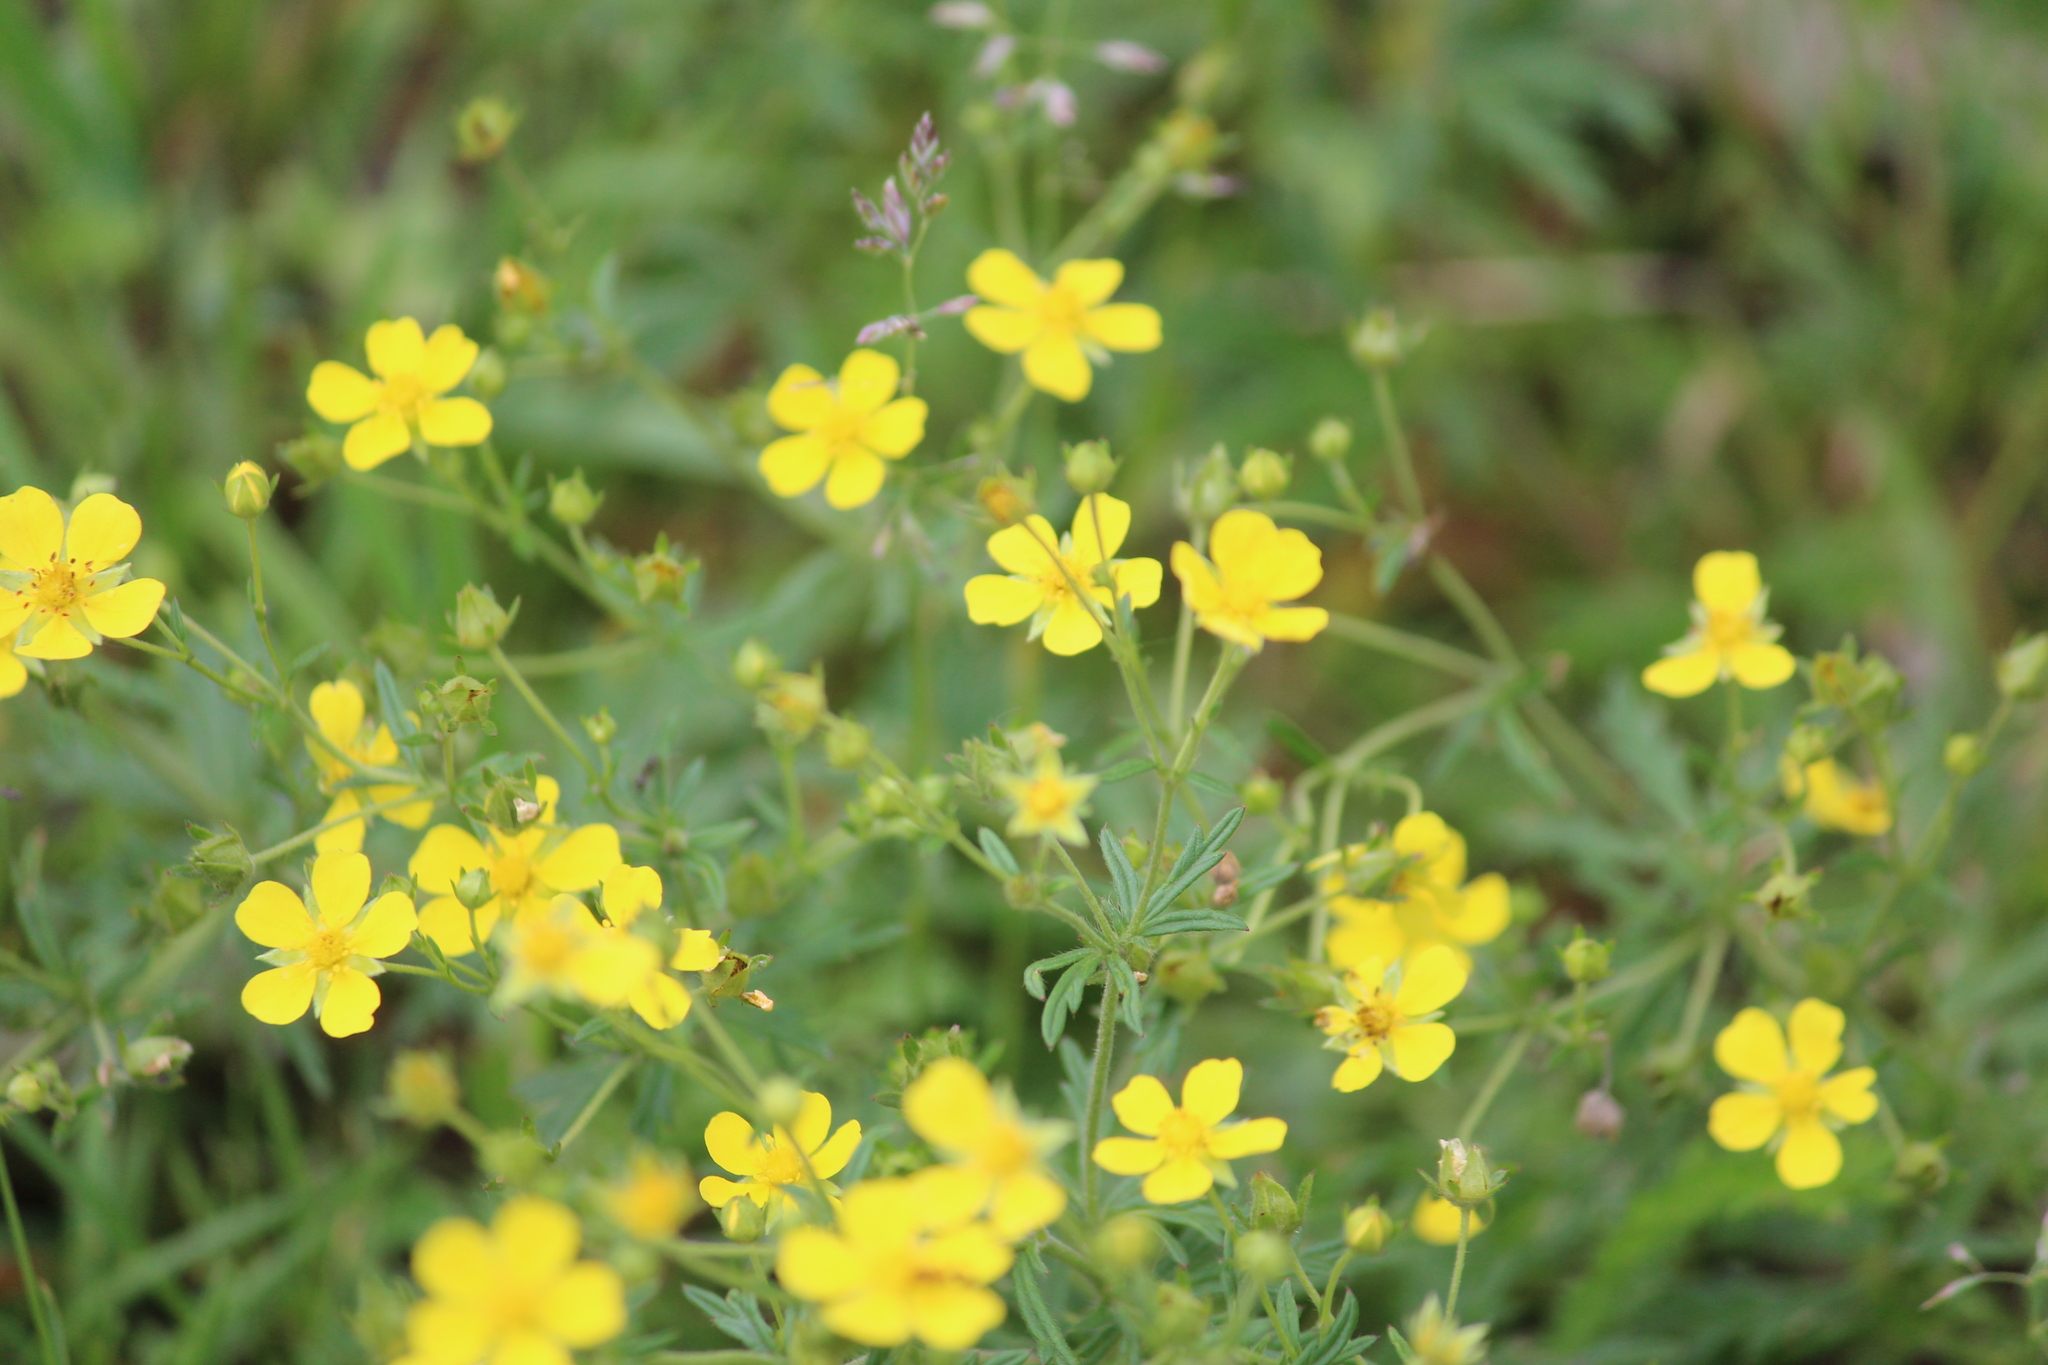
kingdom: Plantae
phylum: Tracheophyta
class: Magnoliopsida
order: Rosales
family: Rosaceae
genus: Potentilla
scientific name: Potentilla argentea
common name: Hoary cinquefoil
